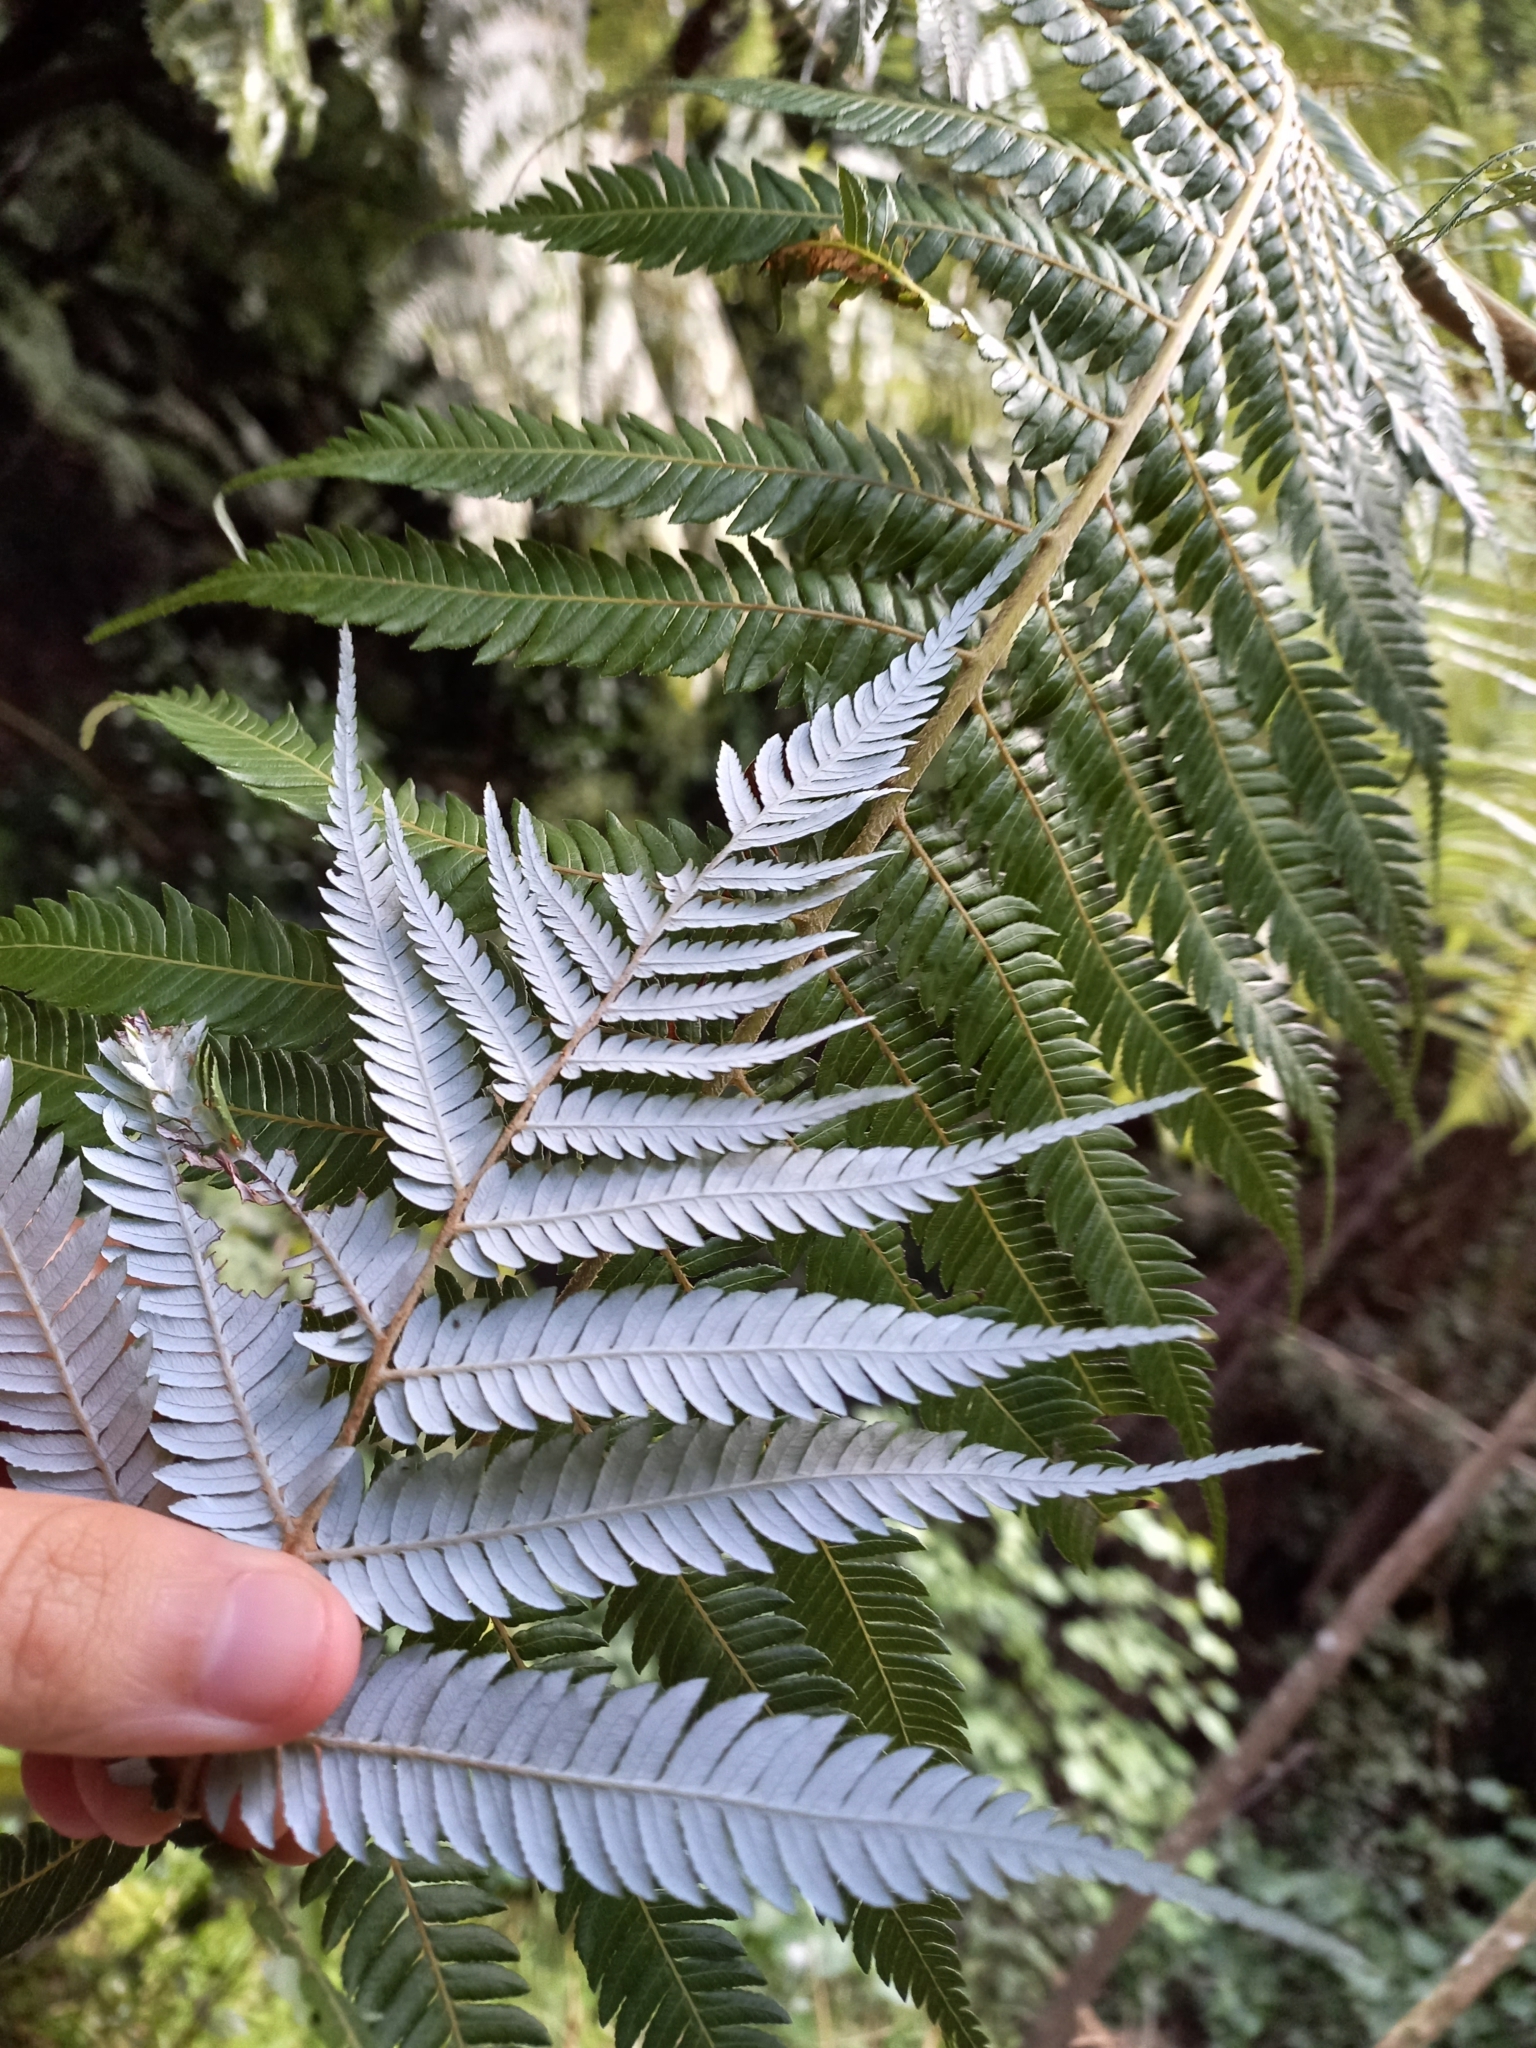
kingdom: Plantae
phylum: Tracheophyta
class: Polypodiopsida
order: Cyatheales
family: Cyatheaceae
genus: Alsophila
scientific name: Alsophila dealbata
